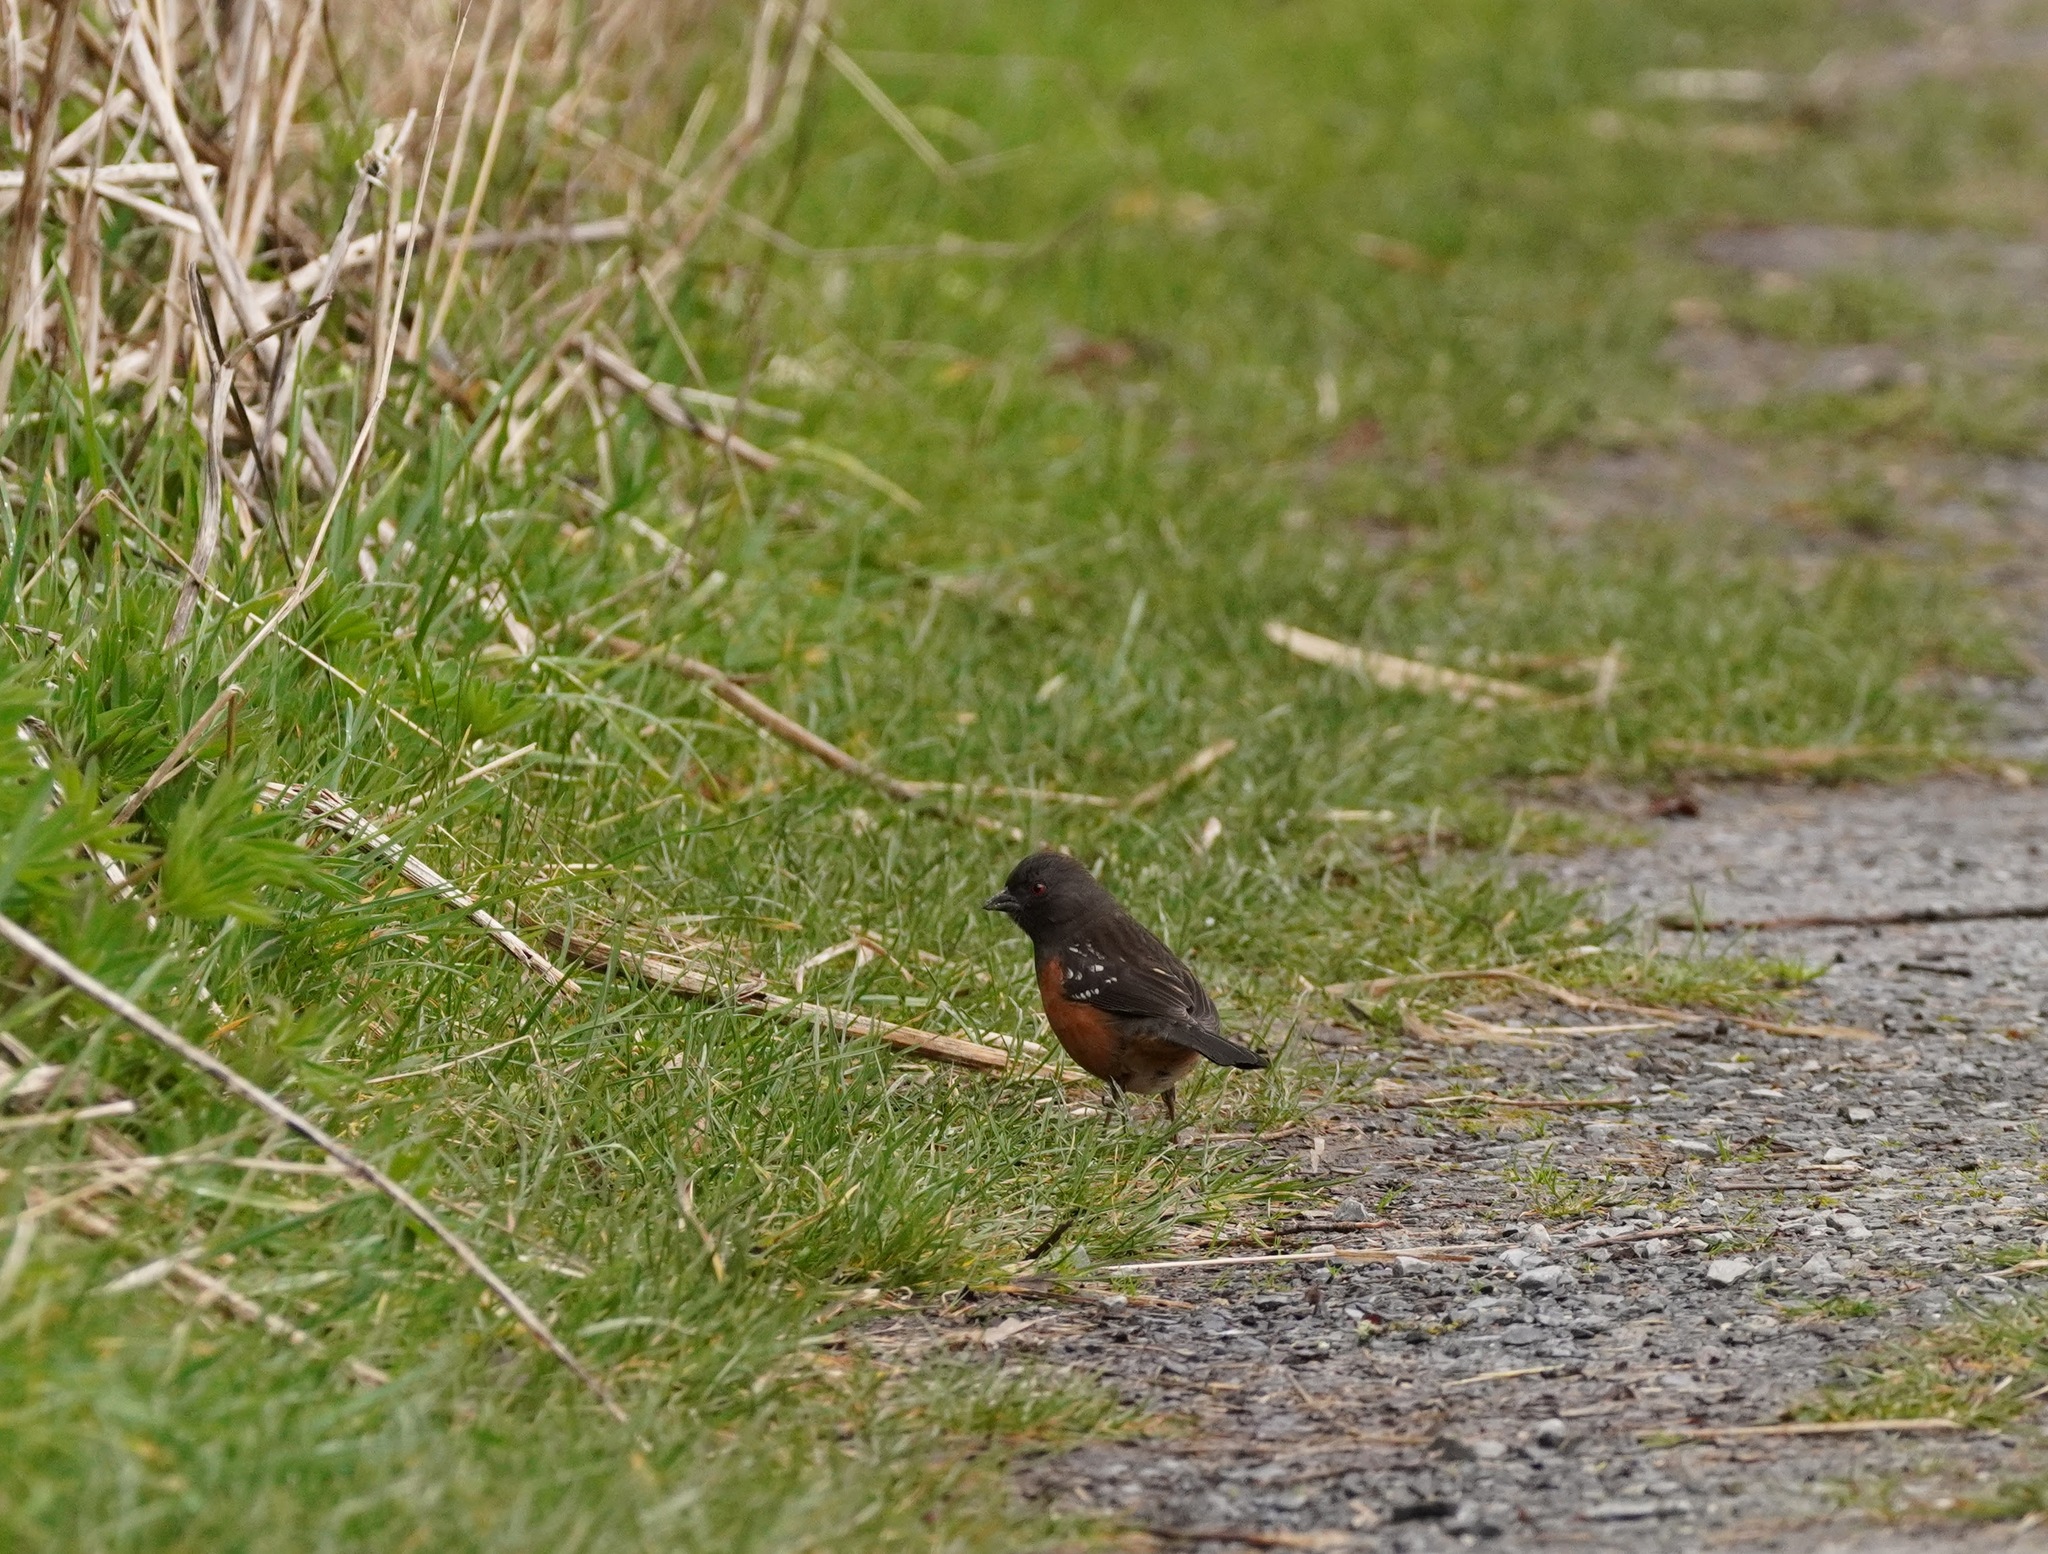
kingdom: Animalia
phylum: Chordata
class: Aves
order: Passeriformes
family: Passerellidae
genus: Pipilo
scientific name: Pipilo maculatus
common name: Spotted towhee
